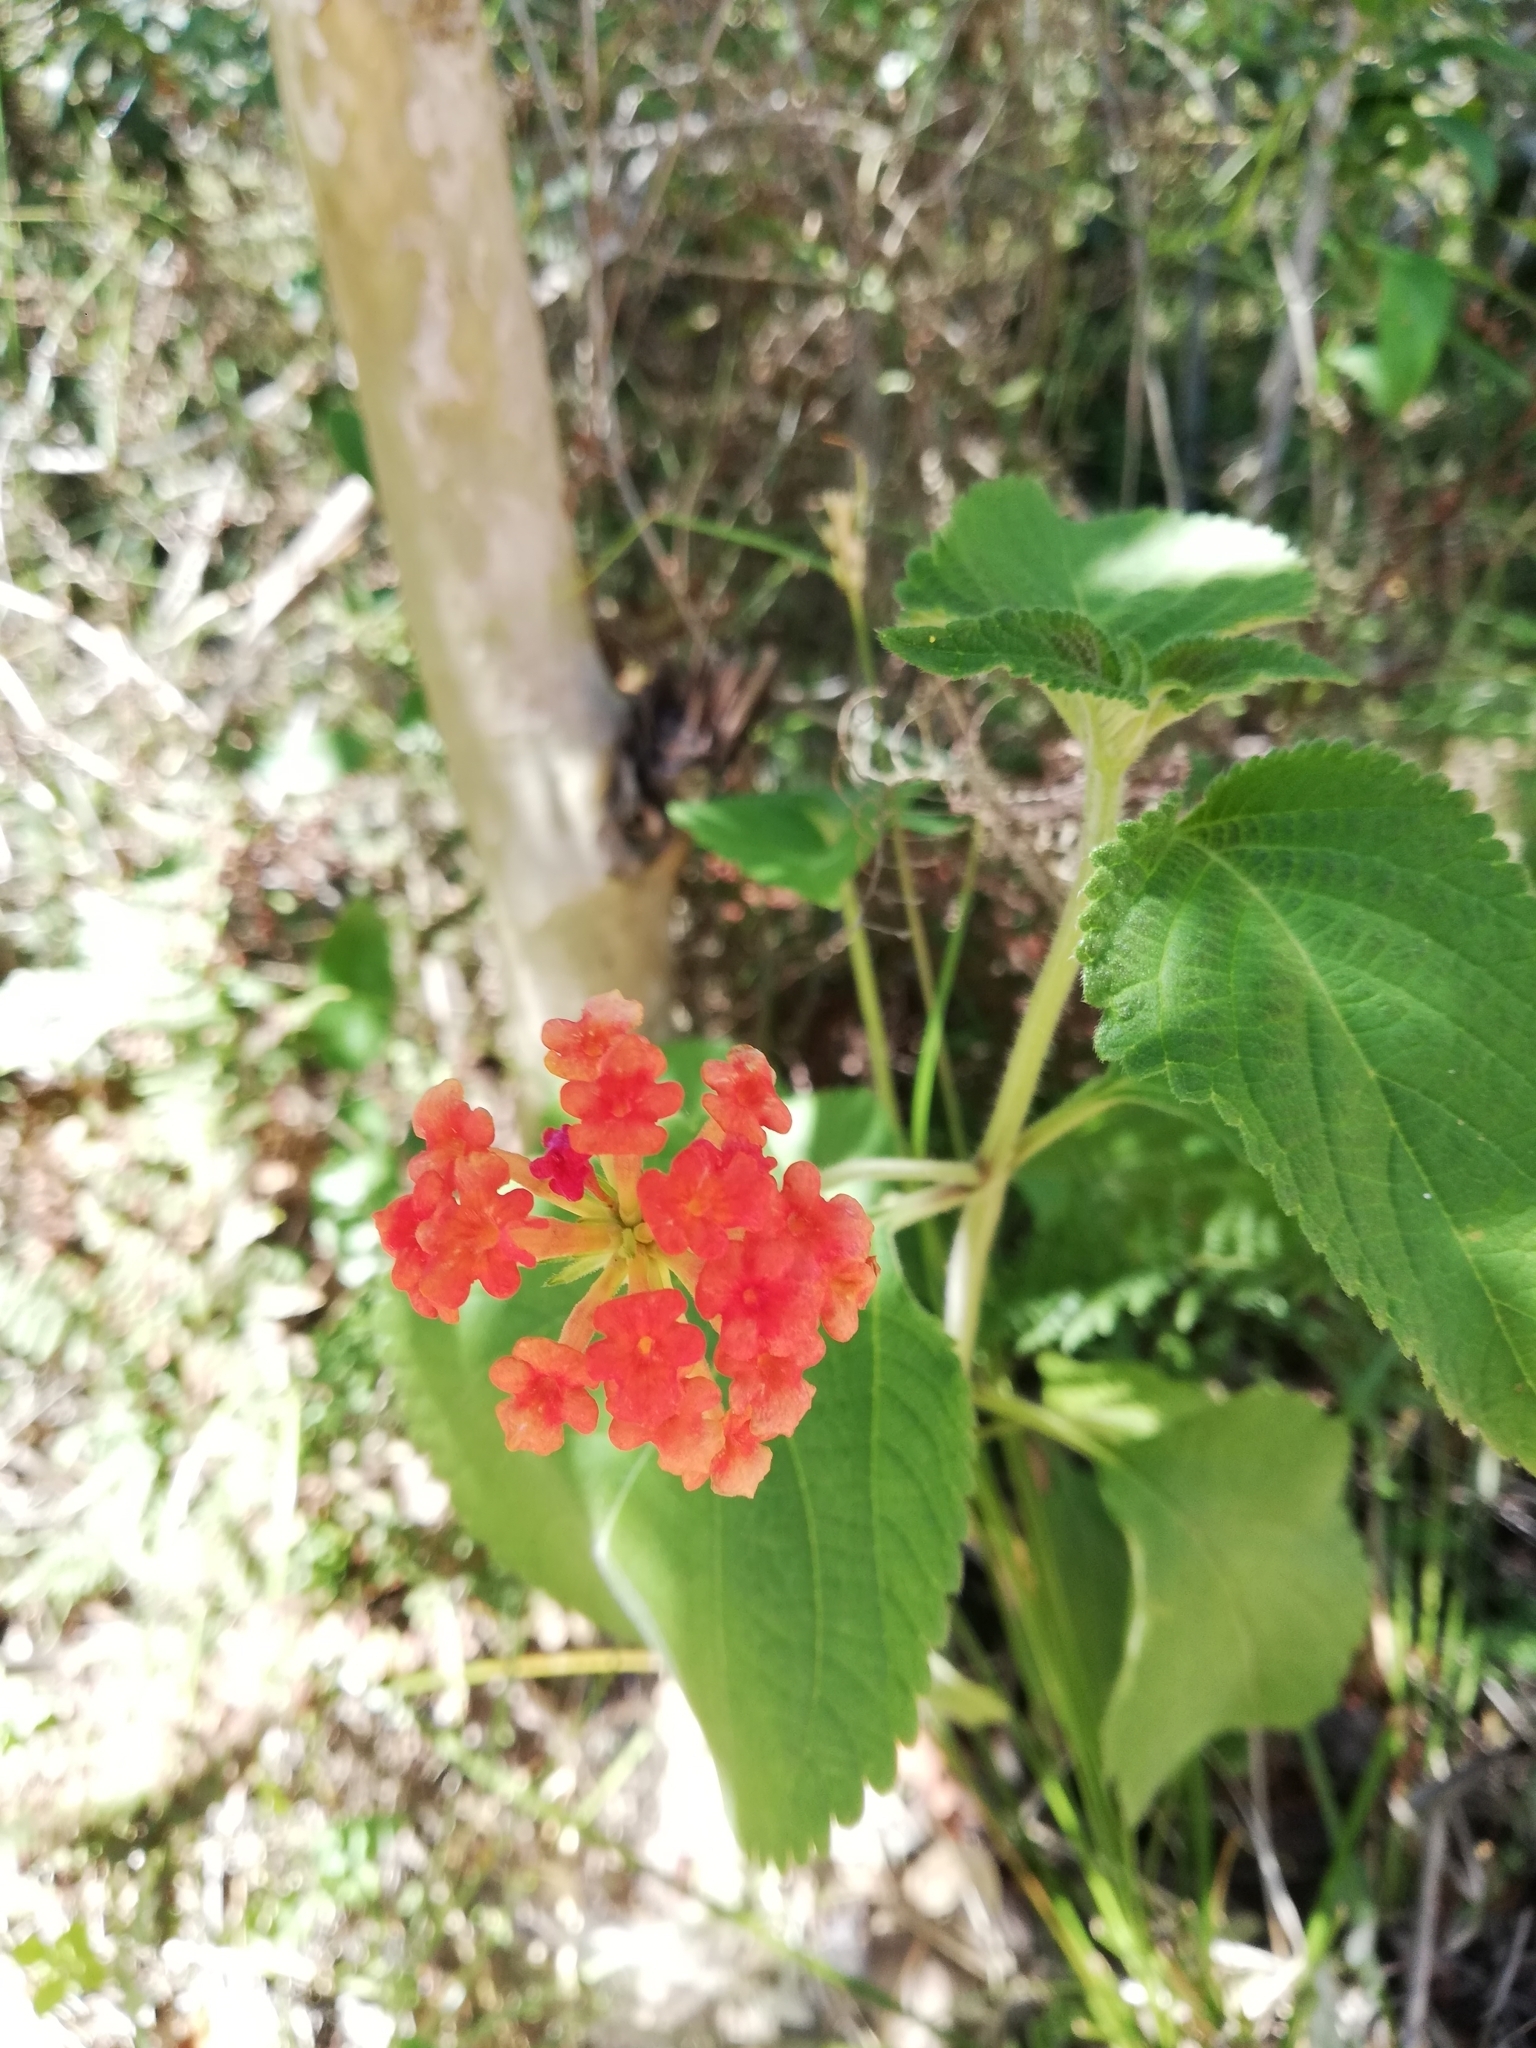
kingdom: Plantae
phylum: Tracheophyta
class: Magnoliopsida
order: Lamiales
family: Verbenaceae
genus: Lantana
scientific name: Lantana camara
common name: Lantana
